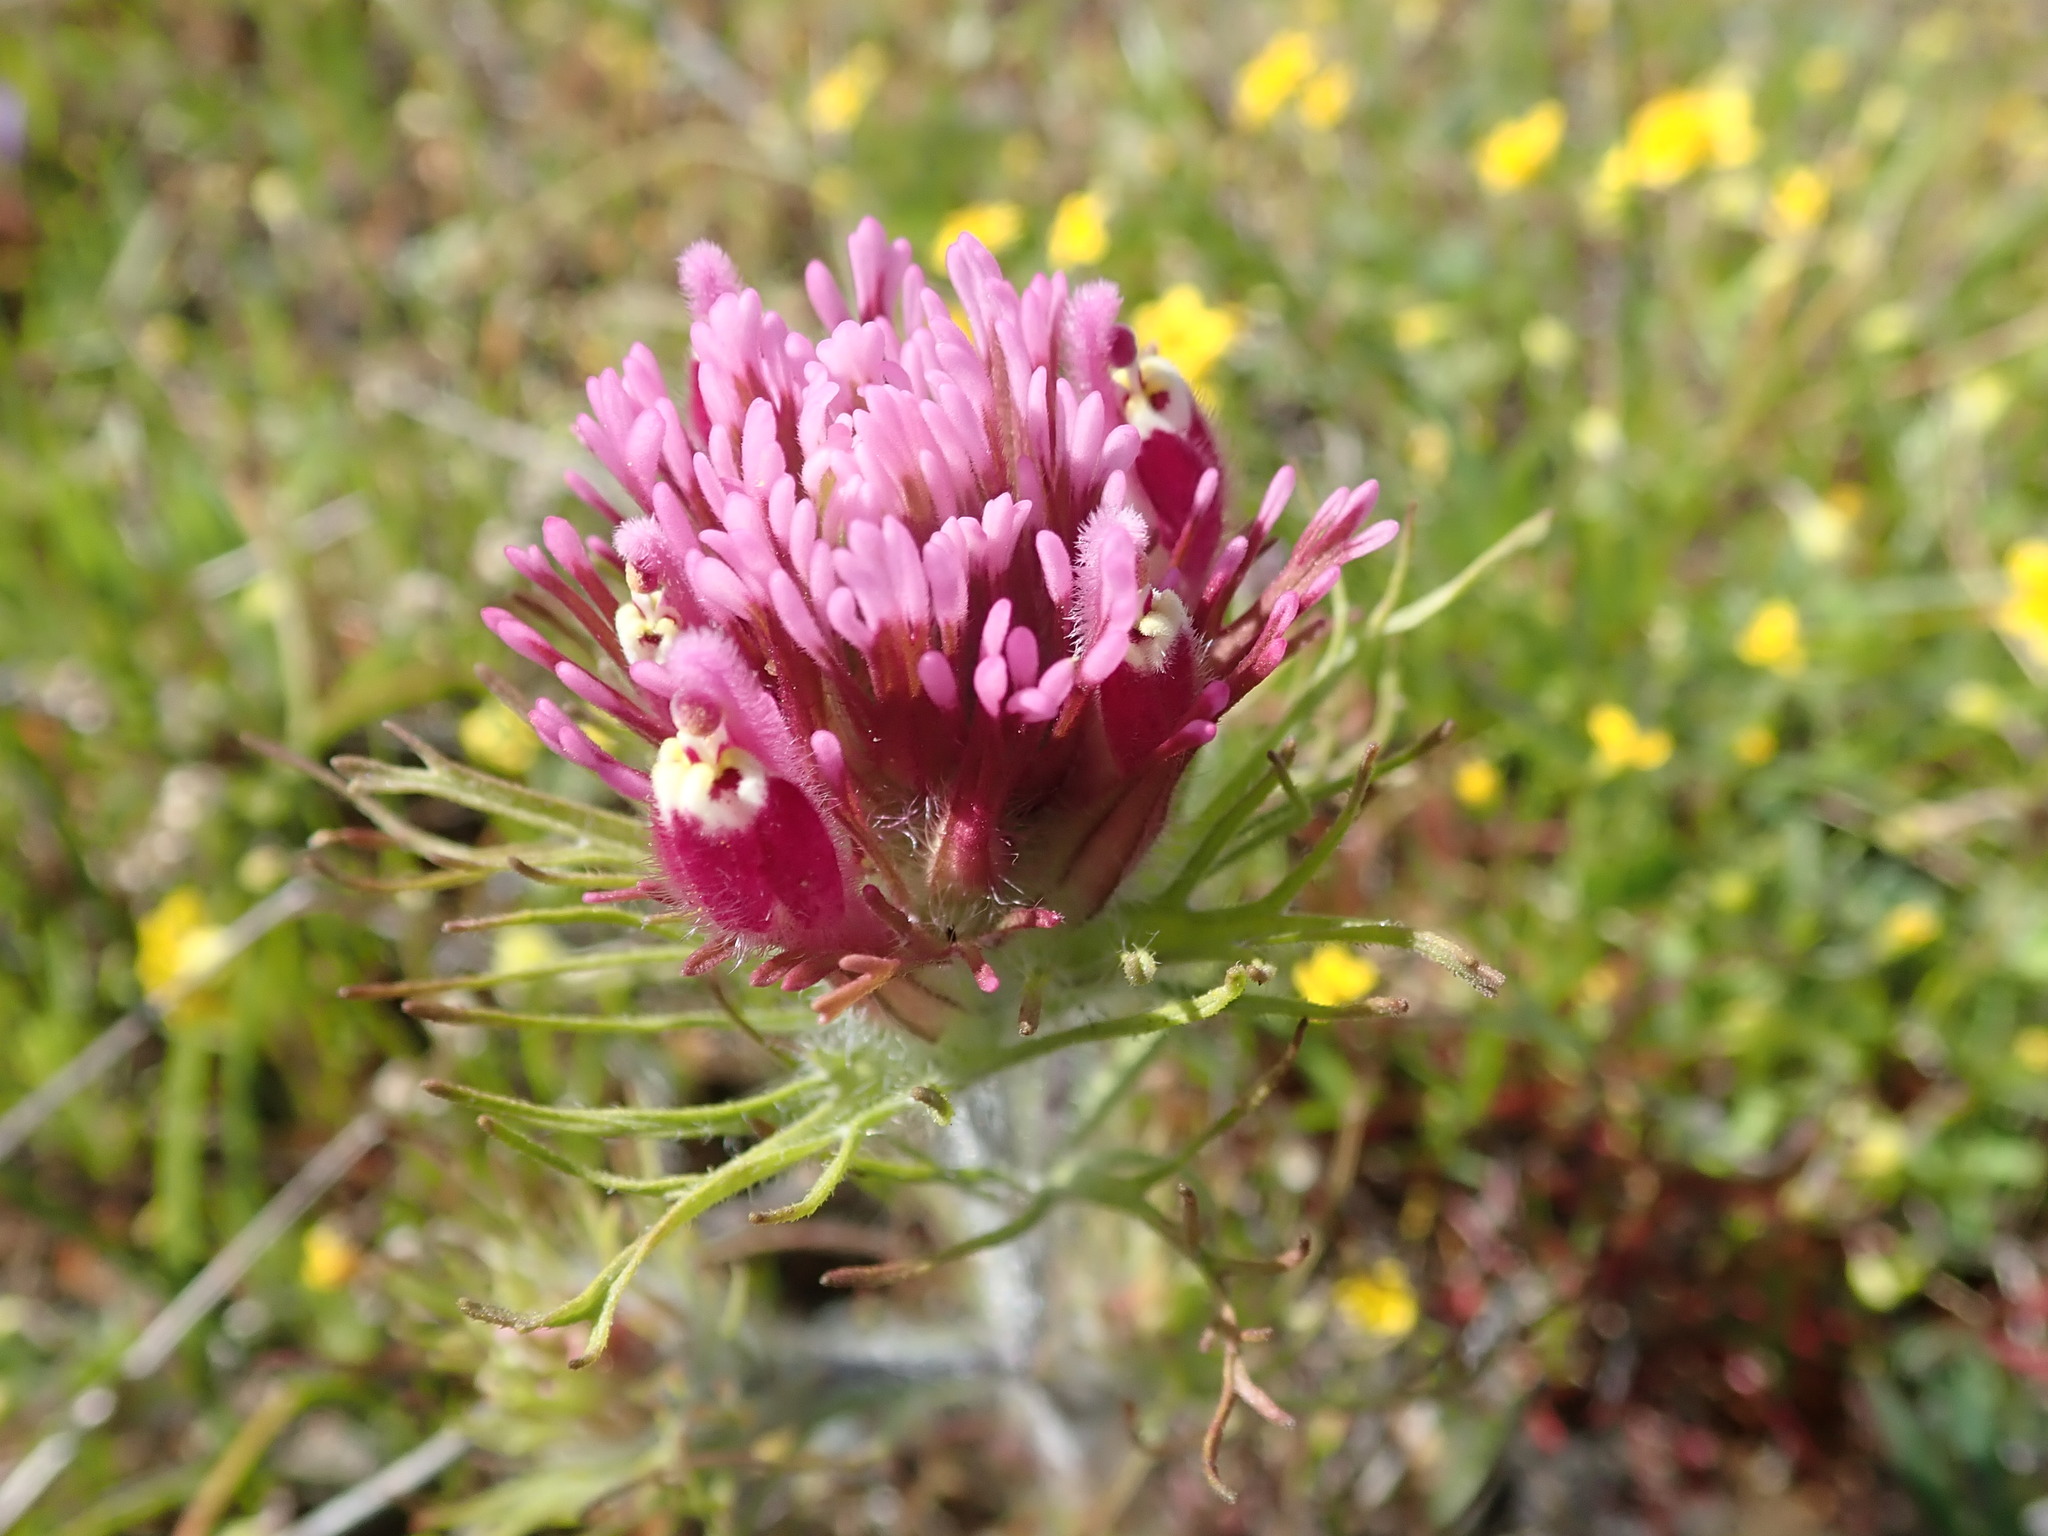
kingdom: Plantae
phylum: Tracheophyta
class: Magnoliopsida
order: Lamiales
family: Orobanchaceae
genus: Castilleja
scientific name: Castilleja exserta
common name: Purple owl-clover
